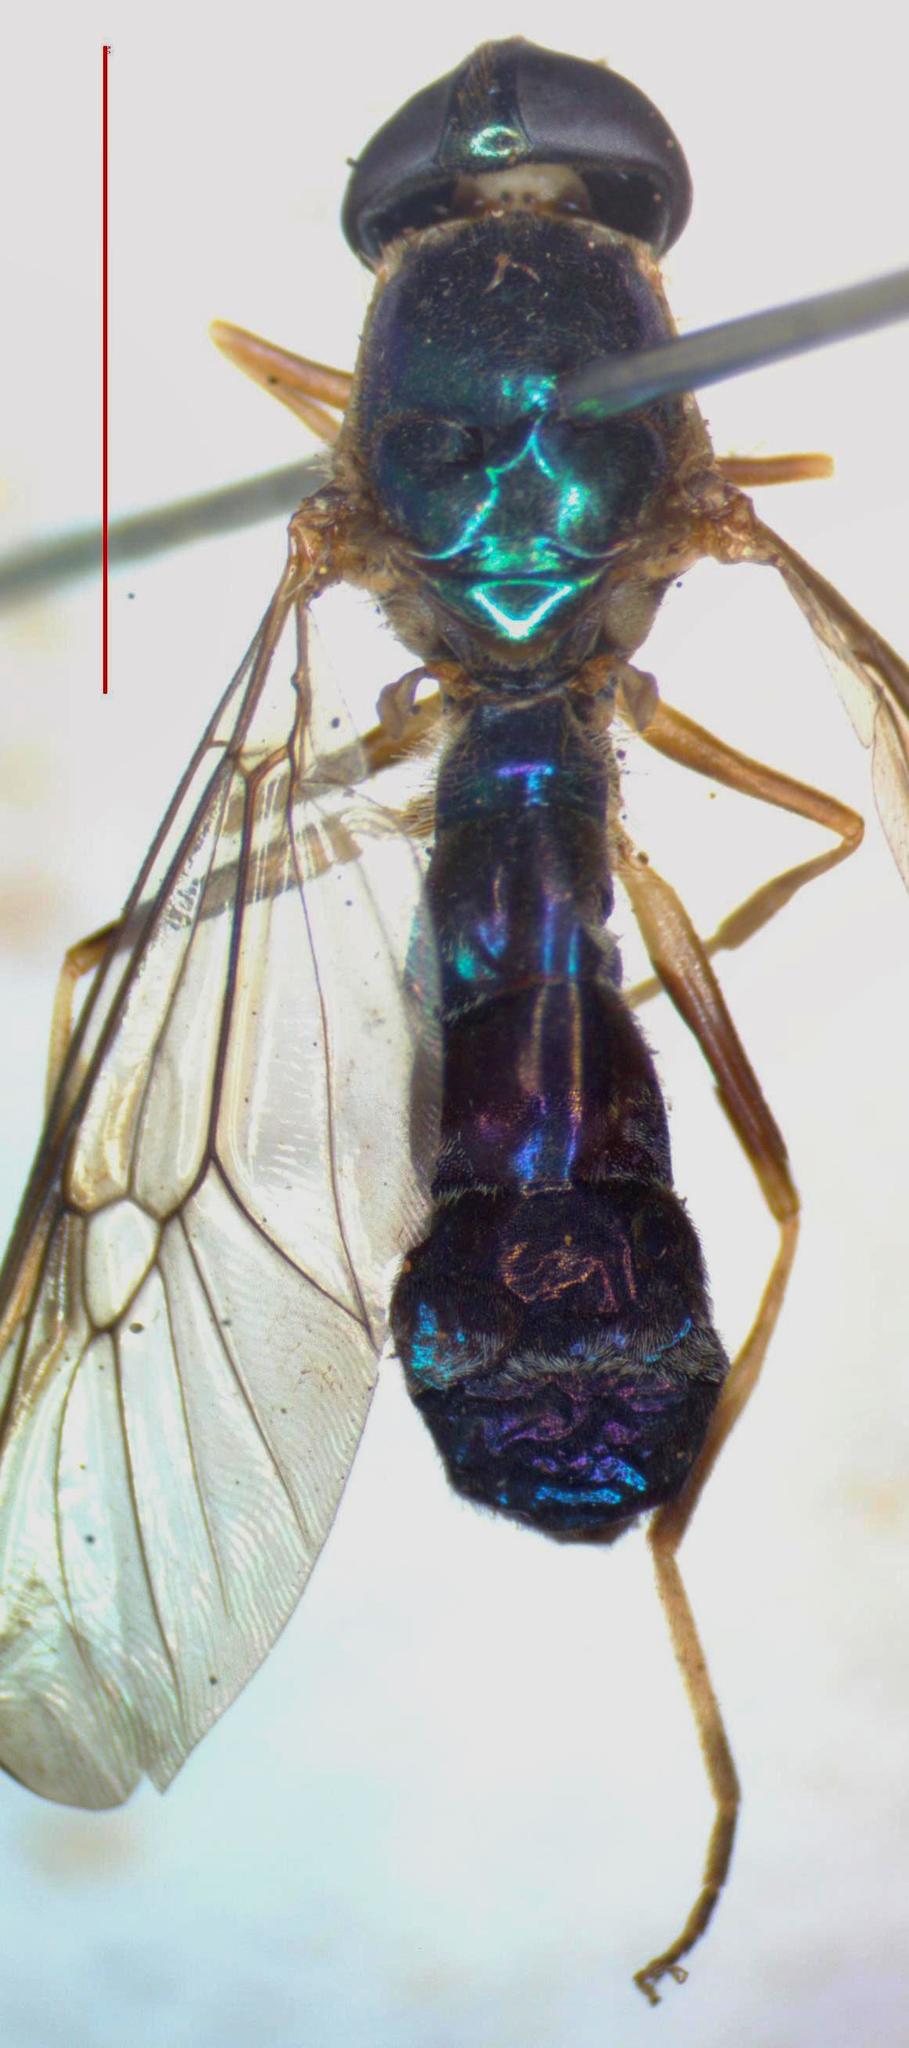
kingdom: Animalia
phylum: Arthropoda
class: Insecta
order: Diptera
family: Stratiomyidae
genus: Sargus
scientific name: Sargus speciosus
